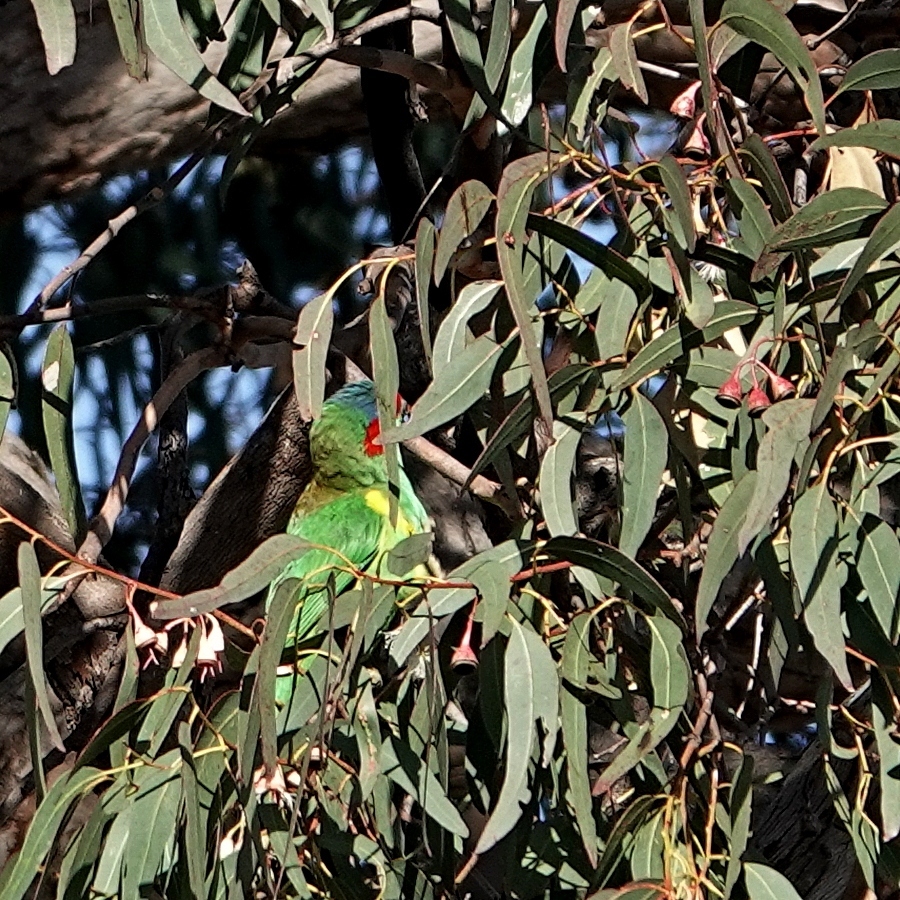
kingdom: Animalia
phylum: Chordata
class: Aves
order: Psittaciformes
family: Psittacidae
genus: Glossopsitta
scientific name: Glossopsitta concinna
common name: Musk lorikeet
